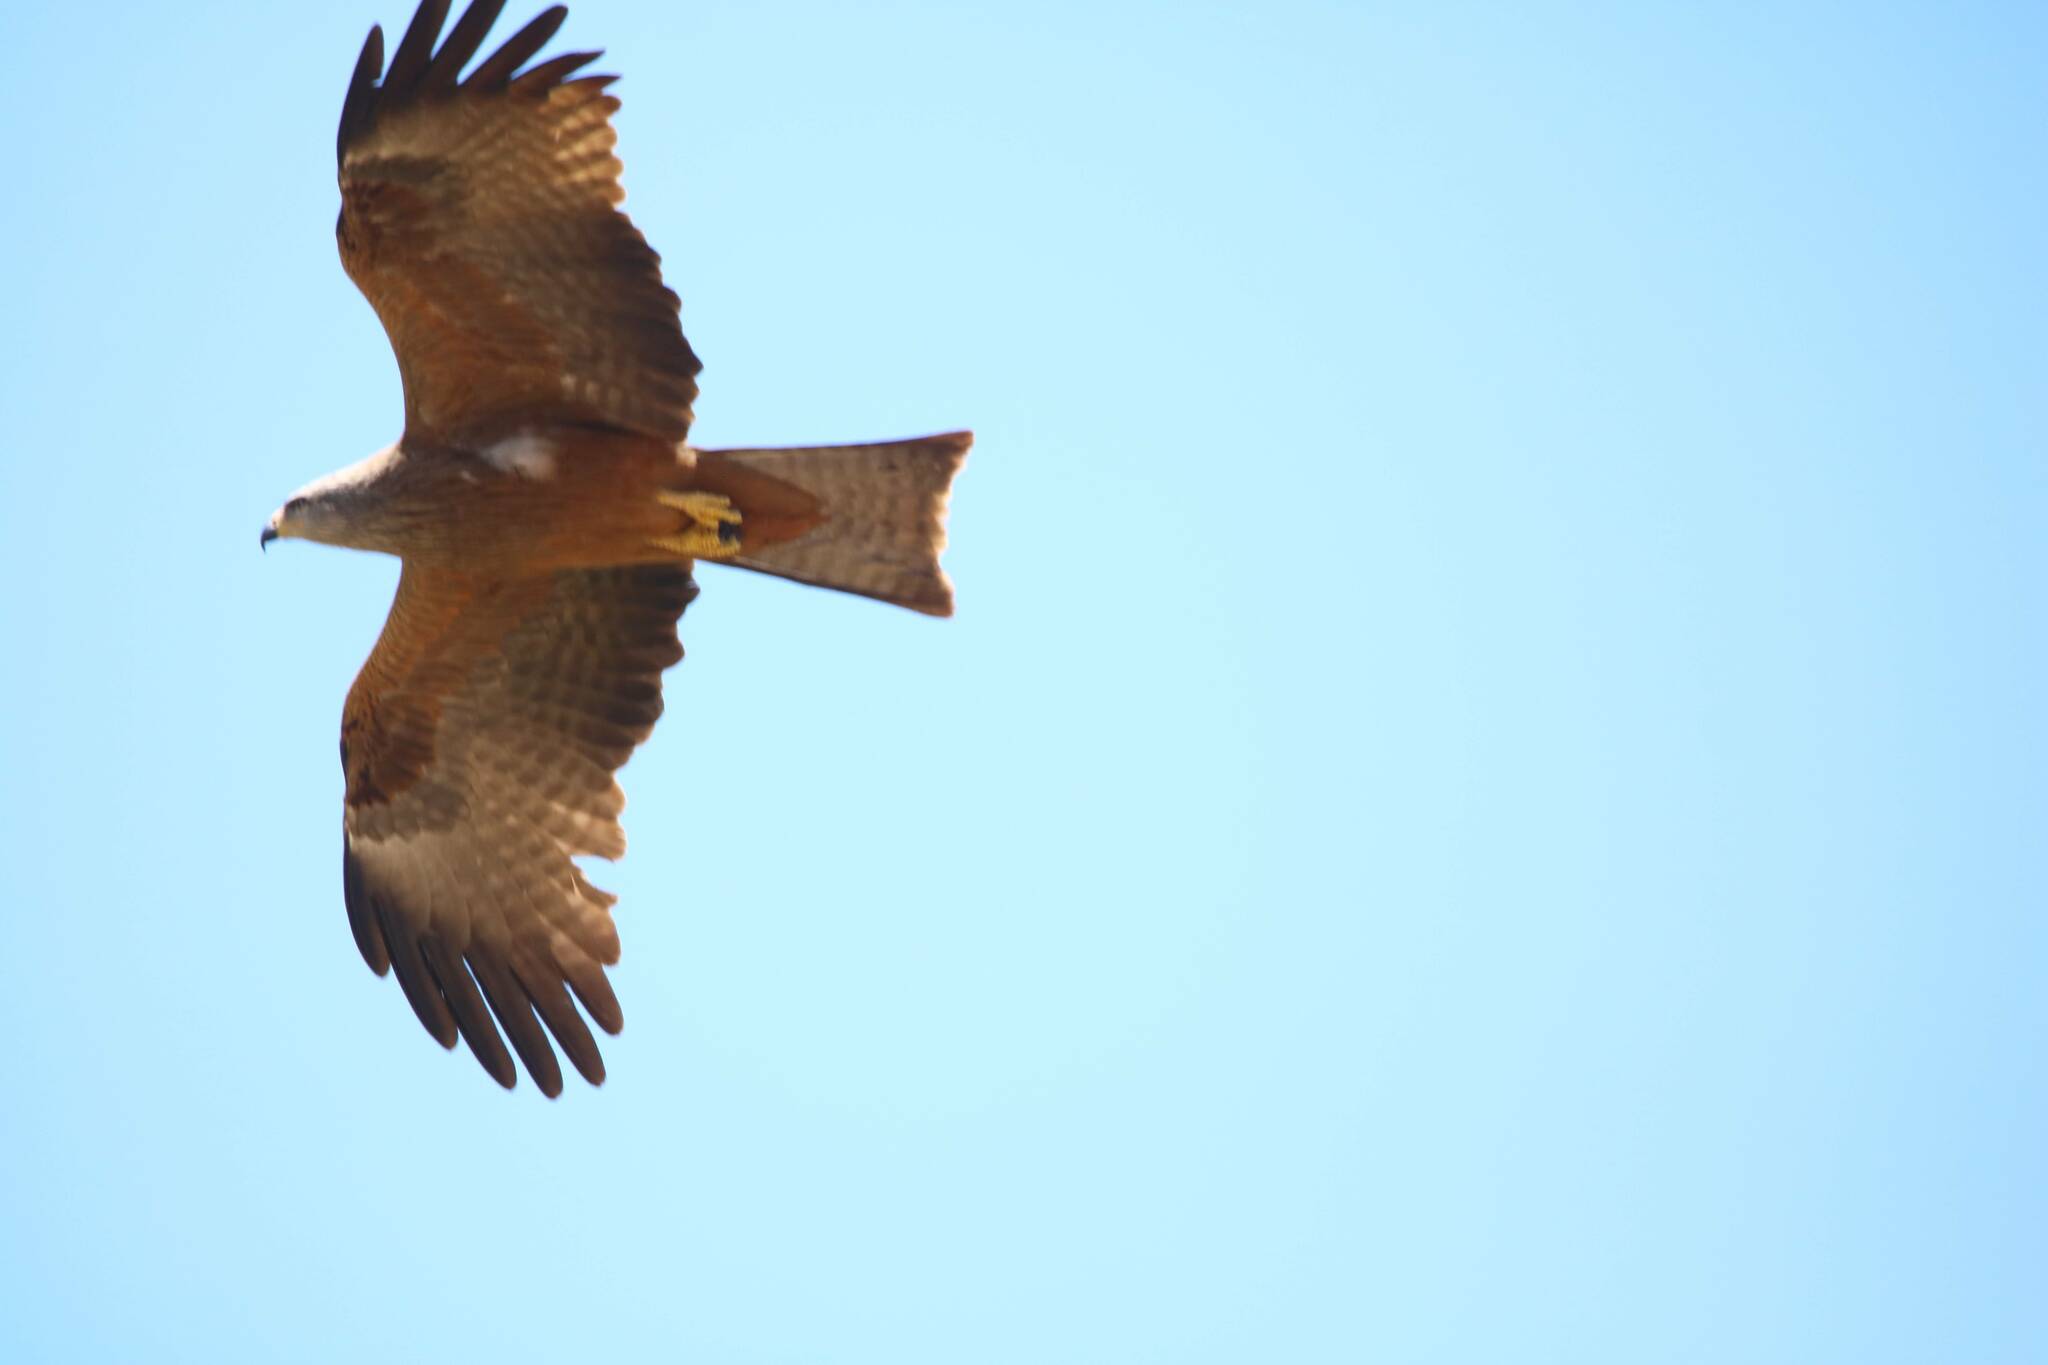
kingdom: Animalia
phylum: Chordata
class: Aves
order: Accipitriformes
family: Accipitridae
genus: Milvus
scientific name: Milvus migrans
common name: Black kite
